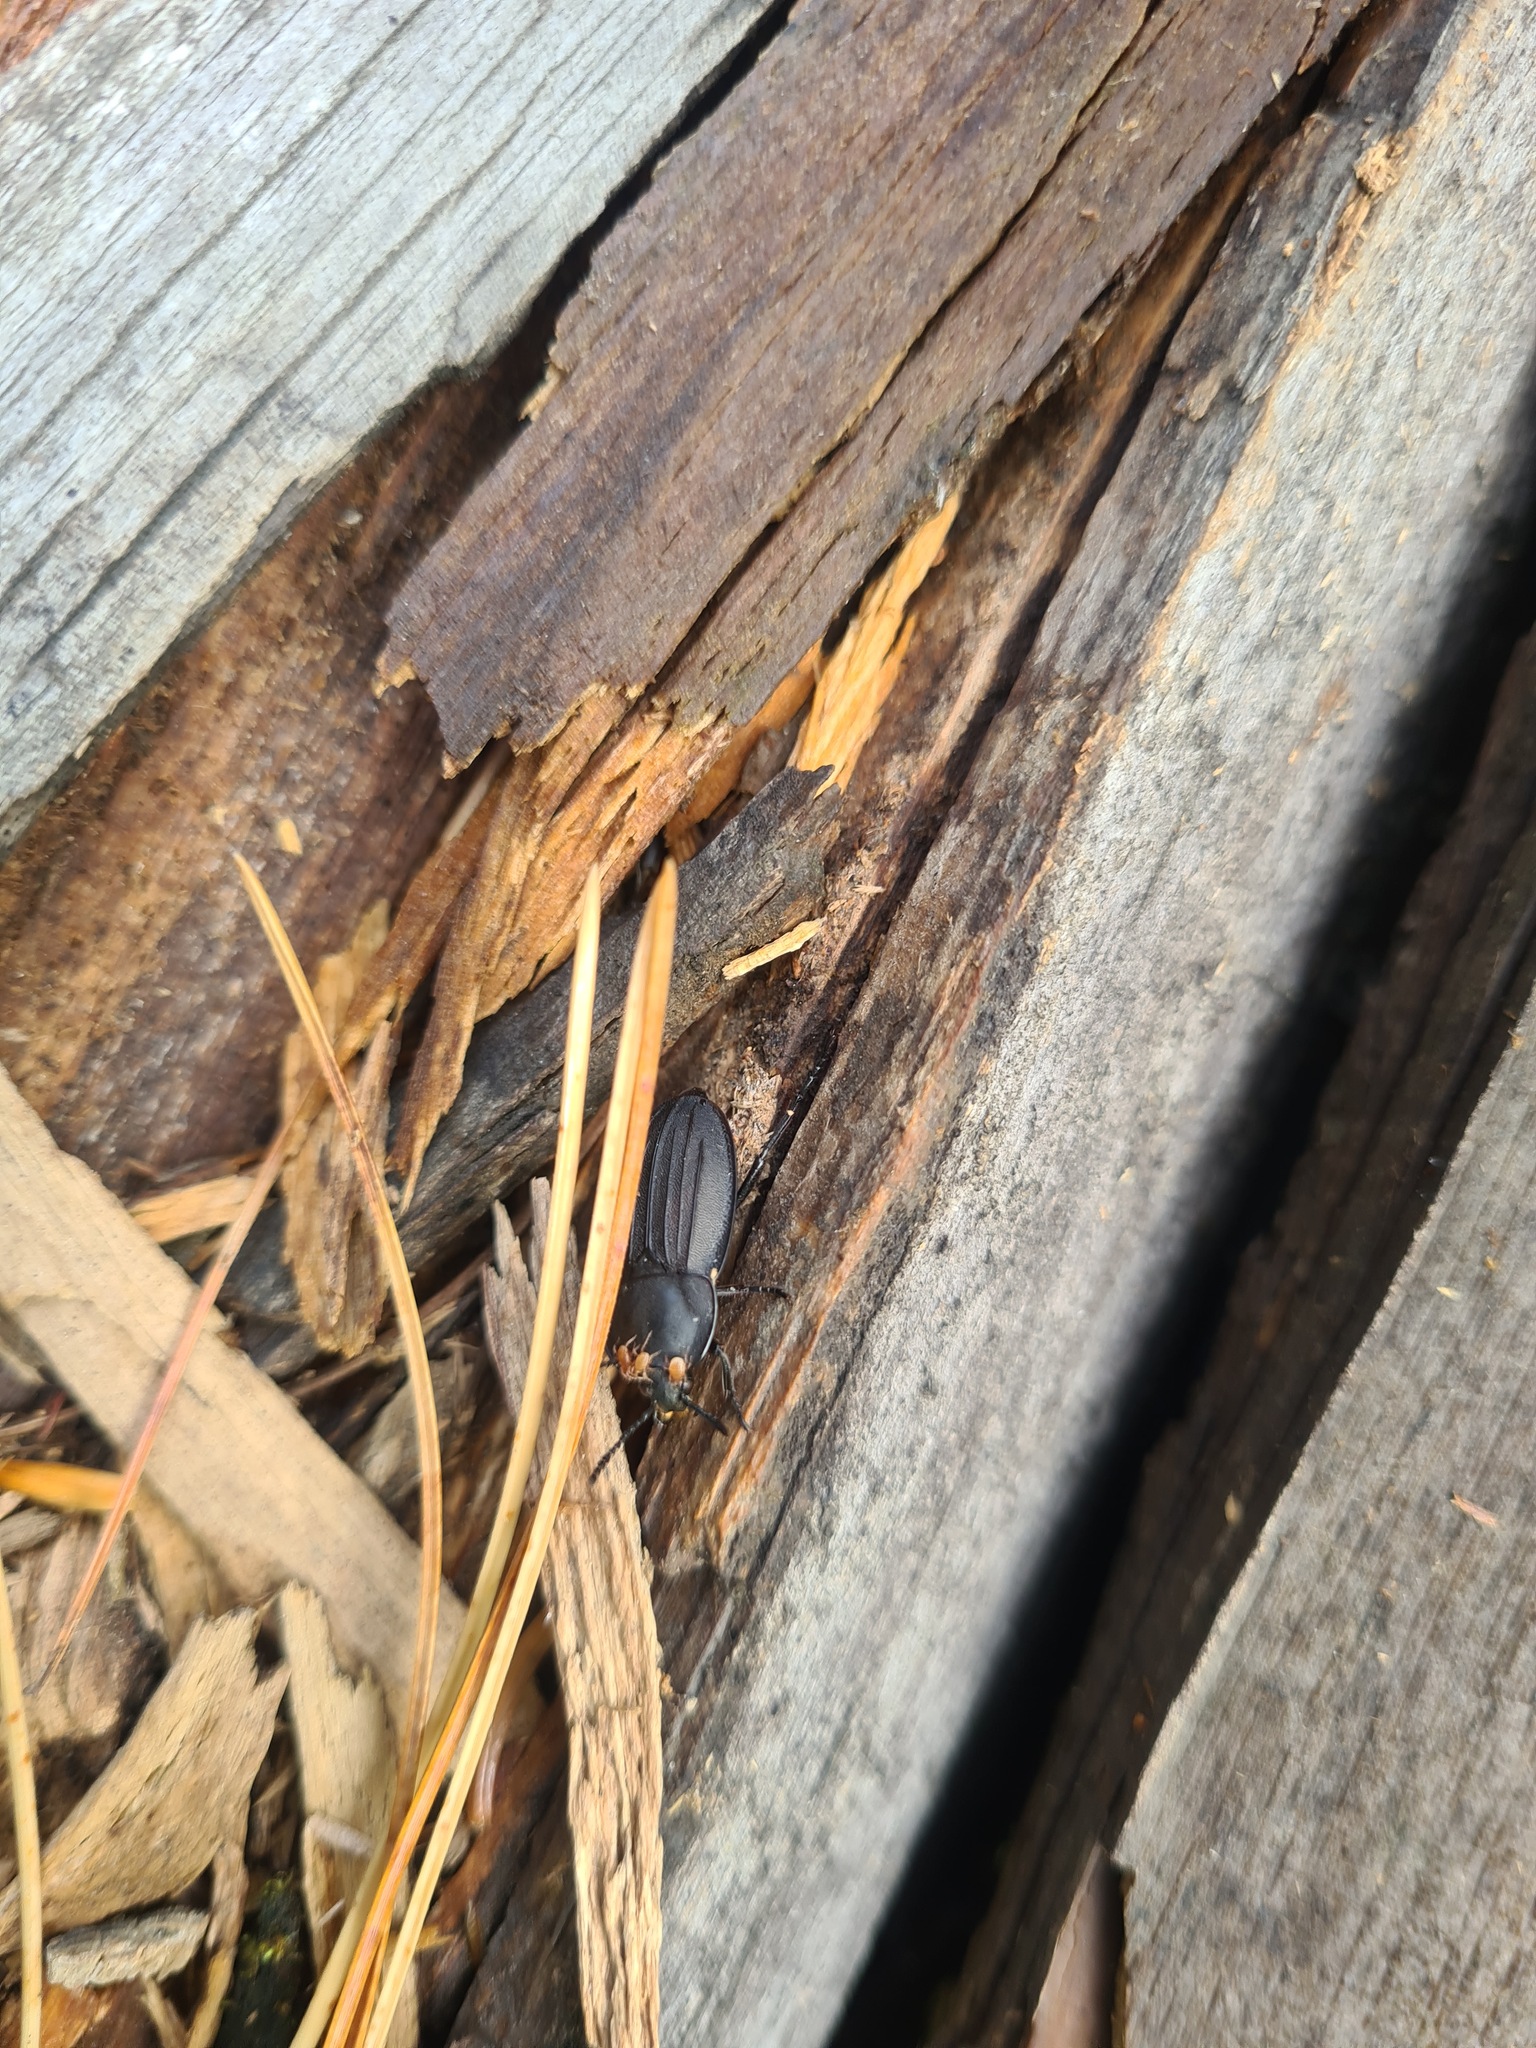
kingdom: Animalia
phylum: Arthropoda
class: Insecta
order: Coleoptera
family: Staphylinidae
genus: Silpha
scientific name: Silpha atrata
